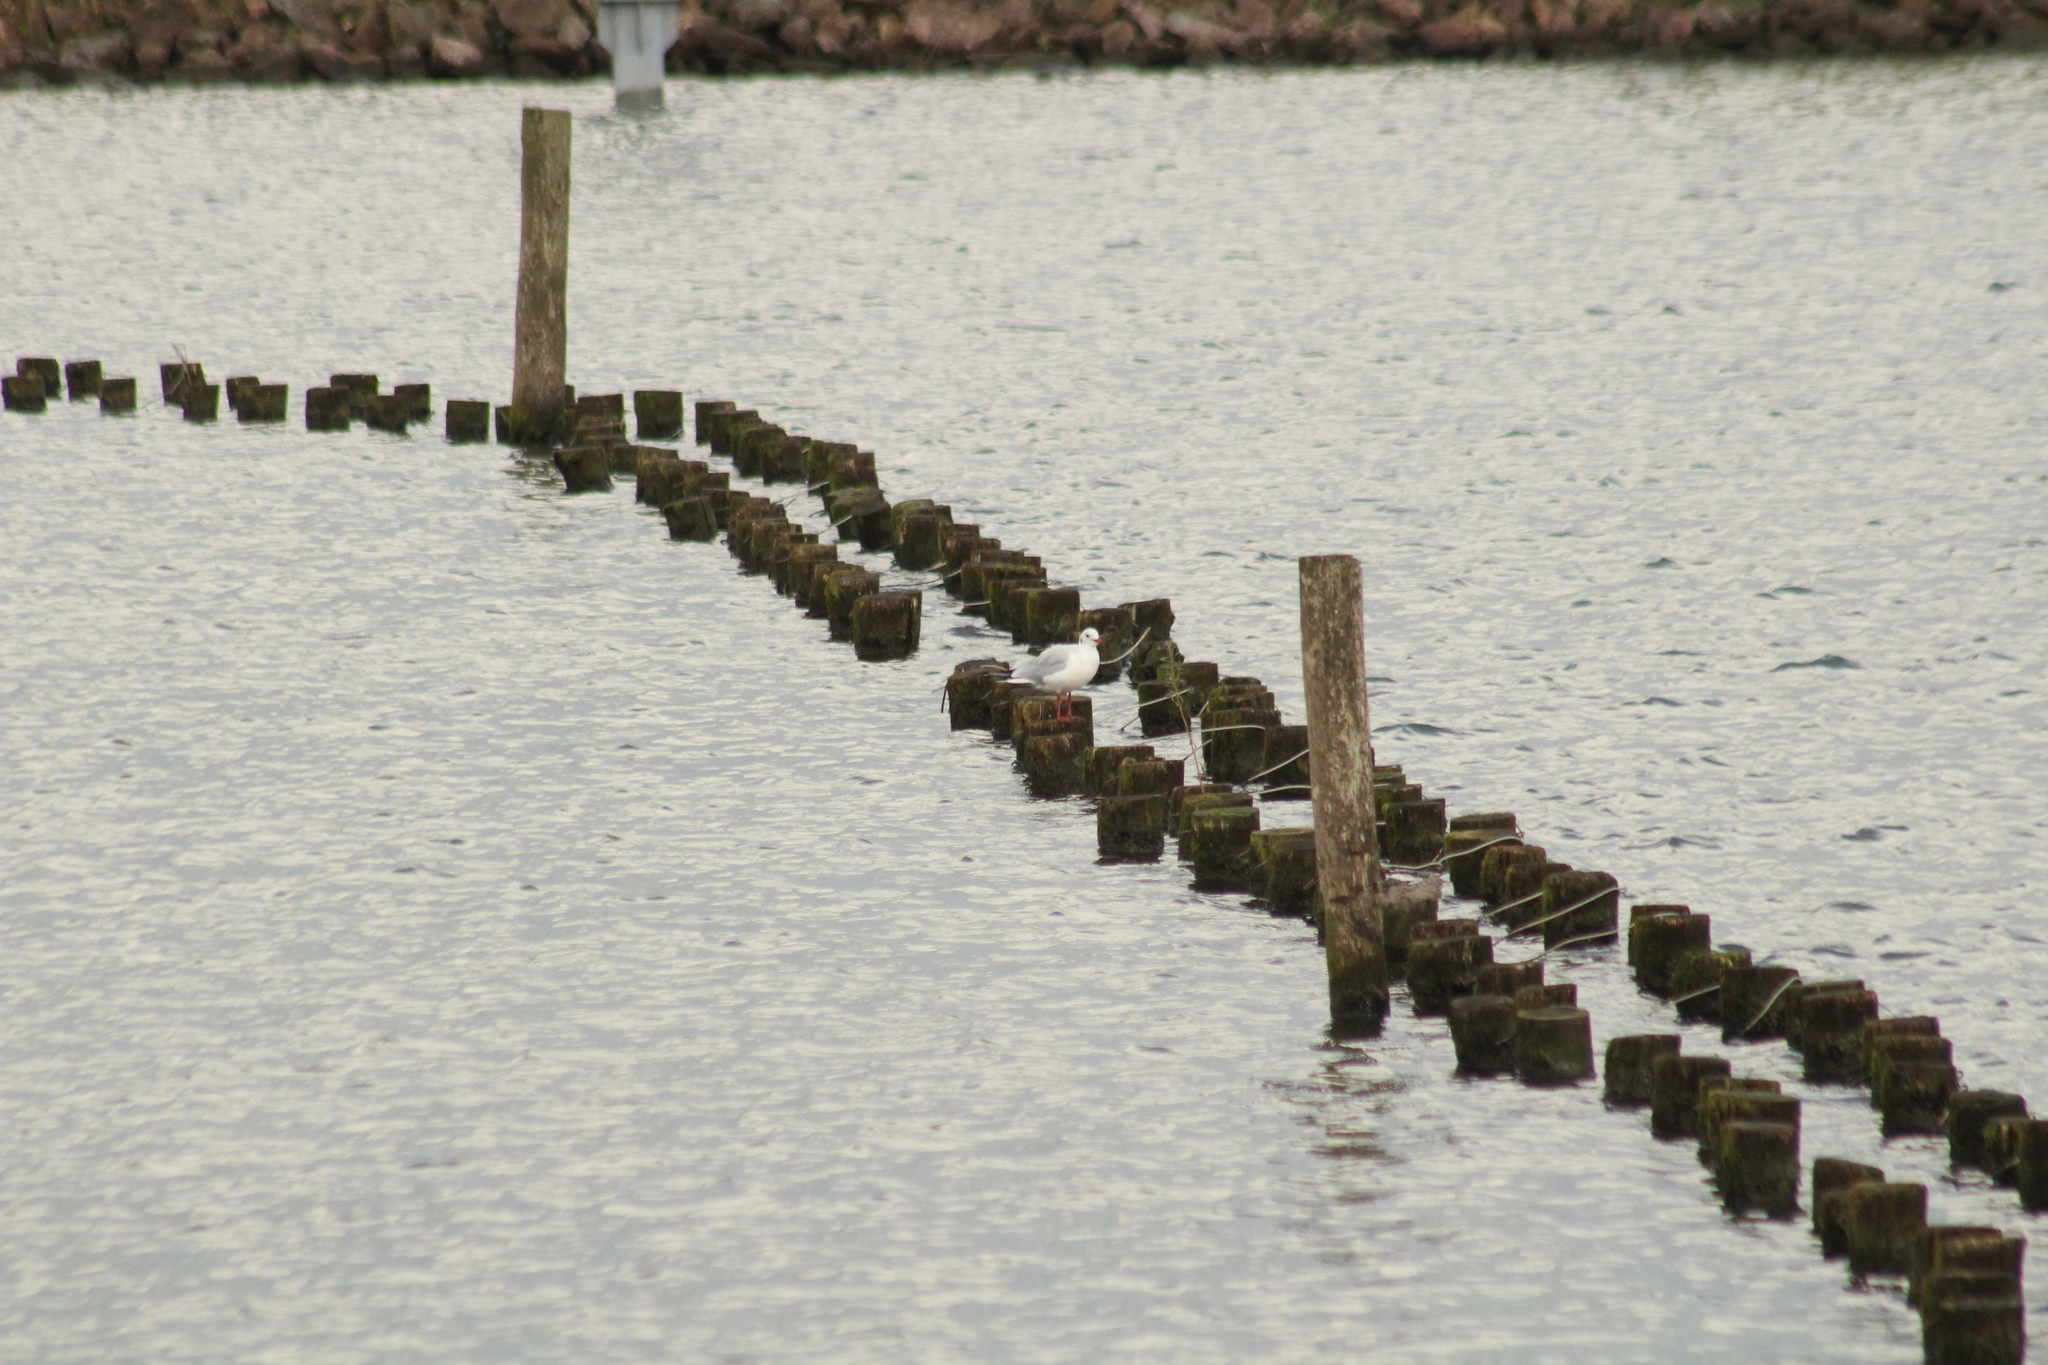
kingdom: Animalia
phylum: Chordata
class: Aves
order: Charadriiformes
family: Laridae
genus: Chroicocephalus
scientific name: Chroicocephalus ridibundus
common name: Black-headed gull
